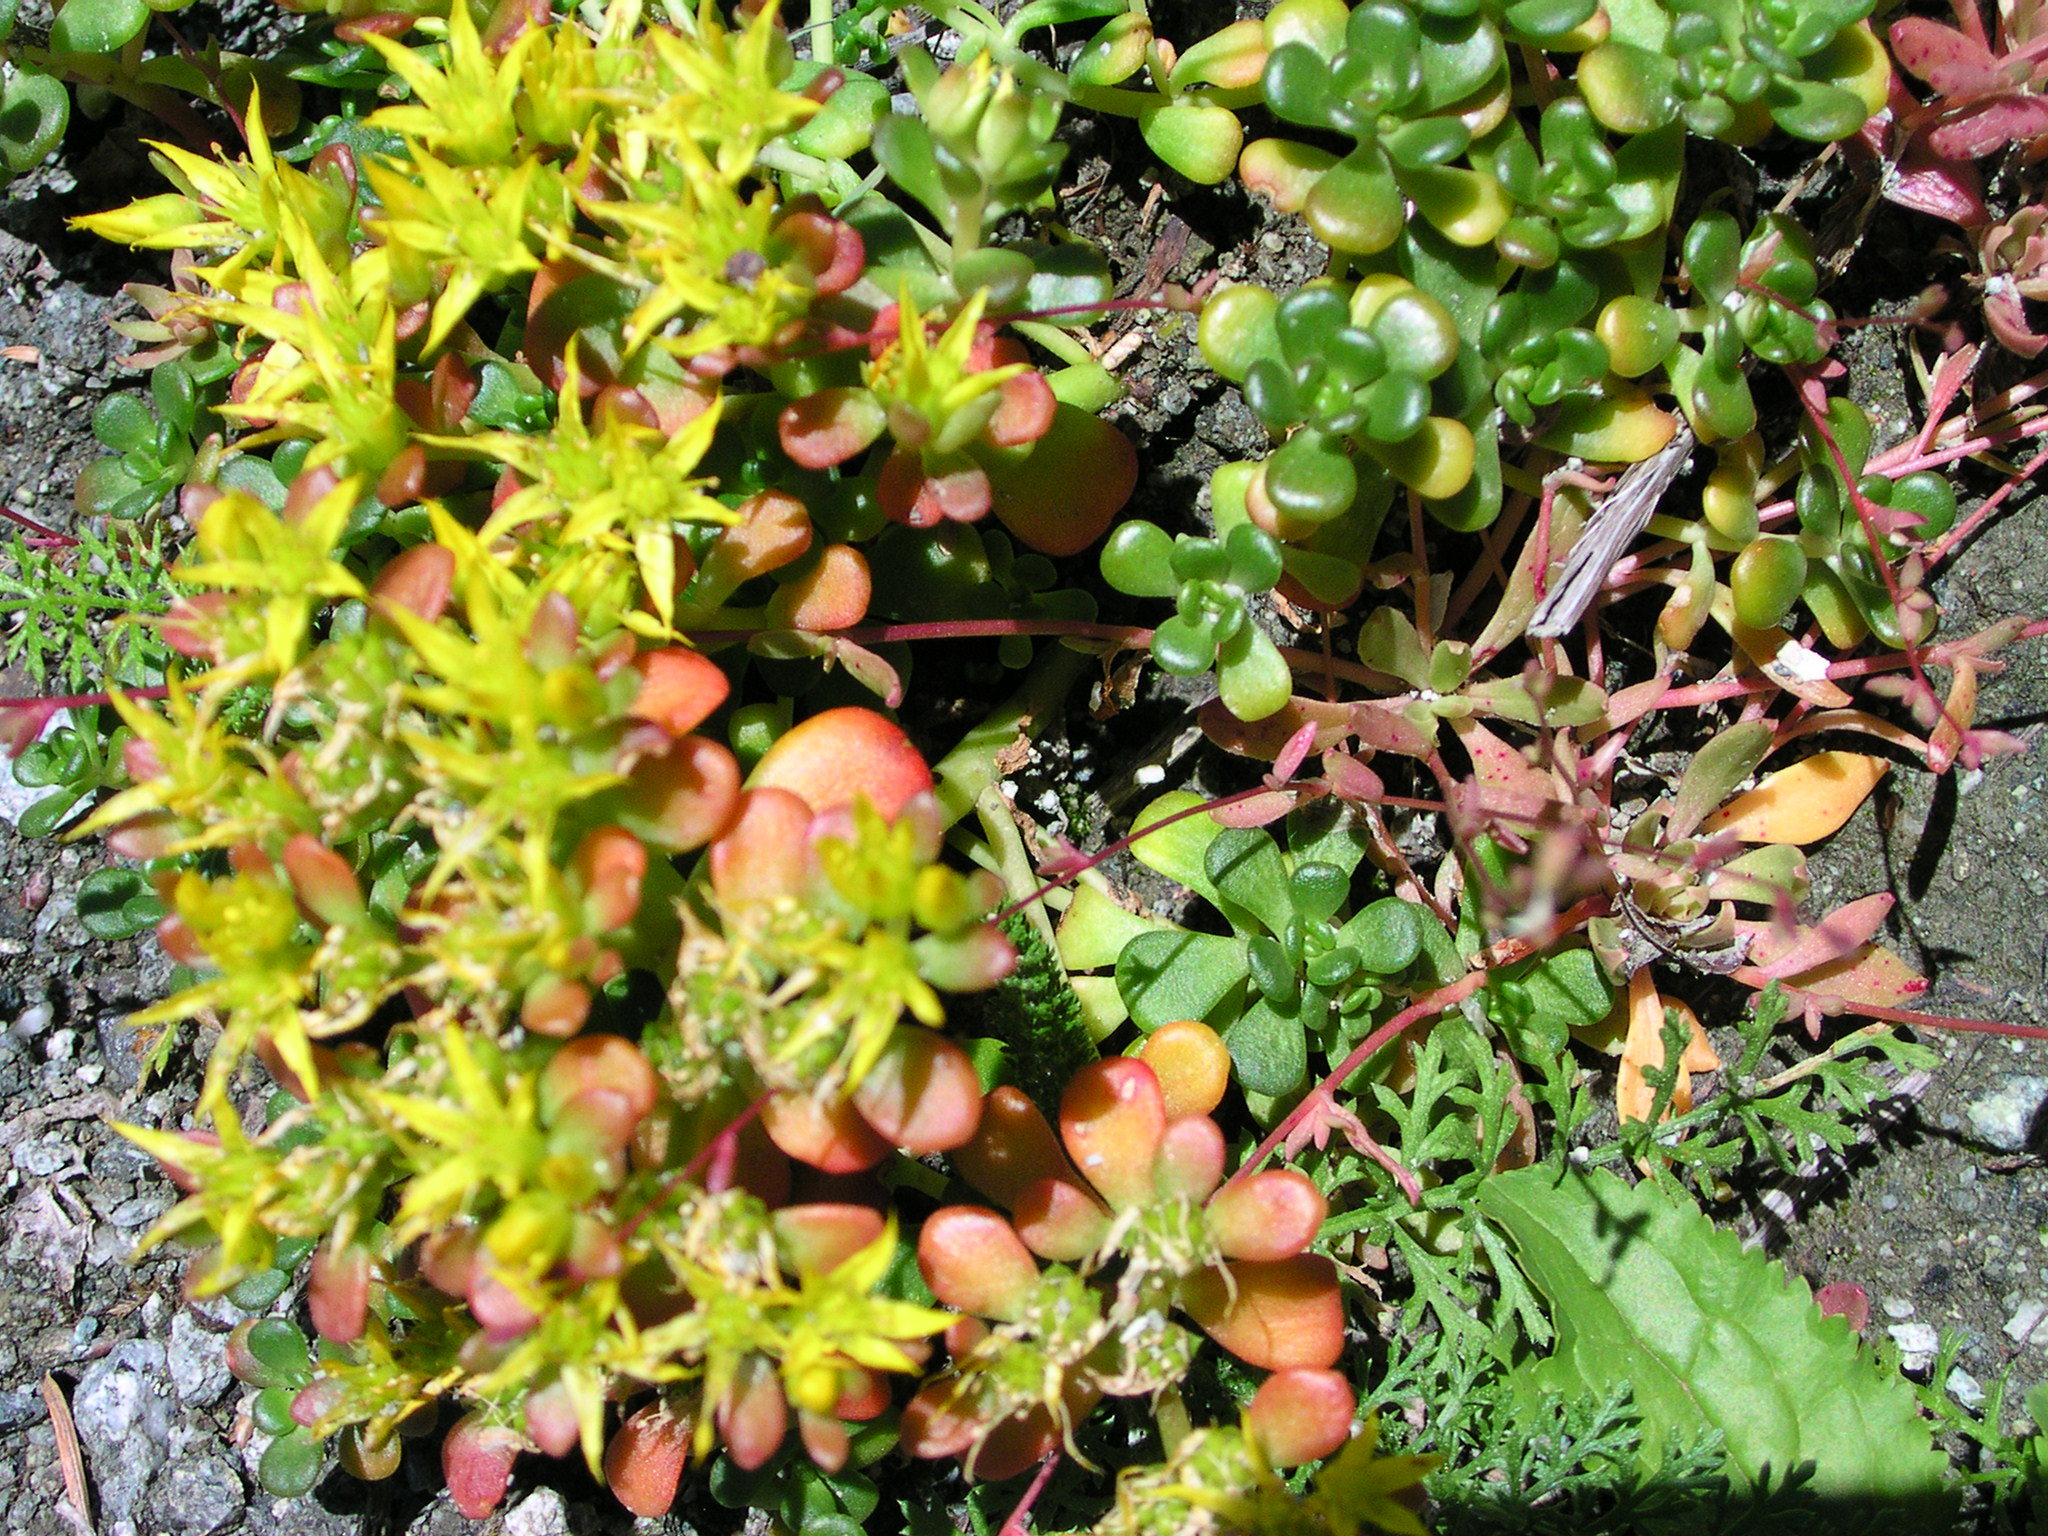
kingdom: Plantae
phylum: Tracheophyta
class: Magnoliopsida
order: Saxifragales
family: Crassulaceae
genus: Sedum
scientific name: Sedum oreganum
